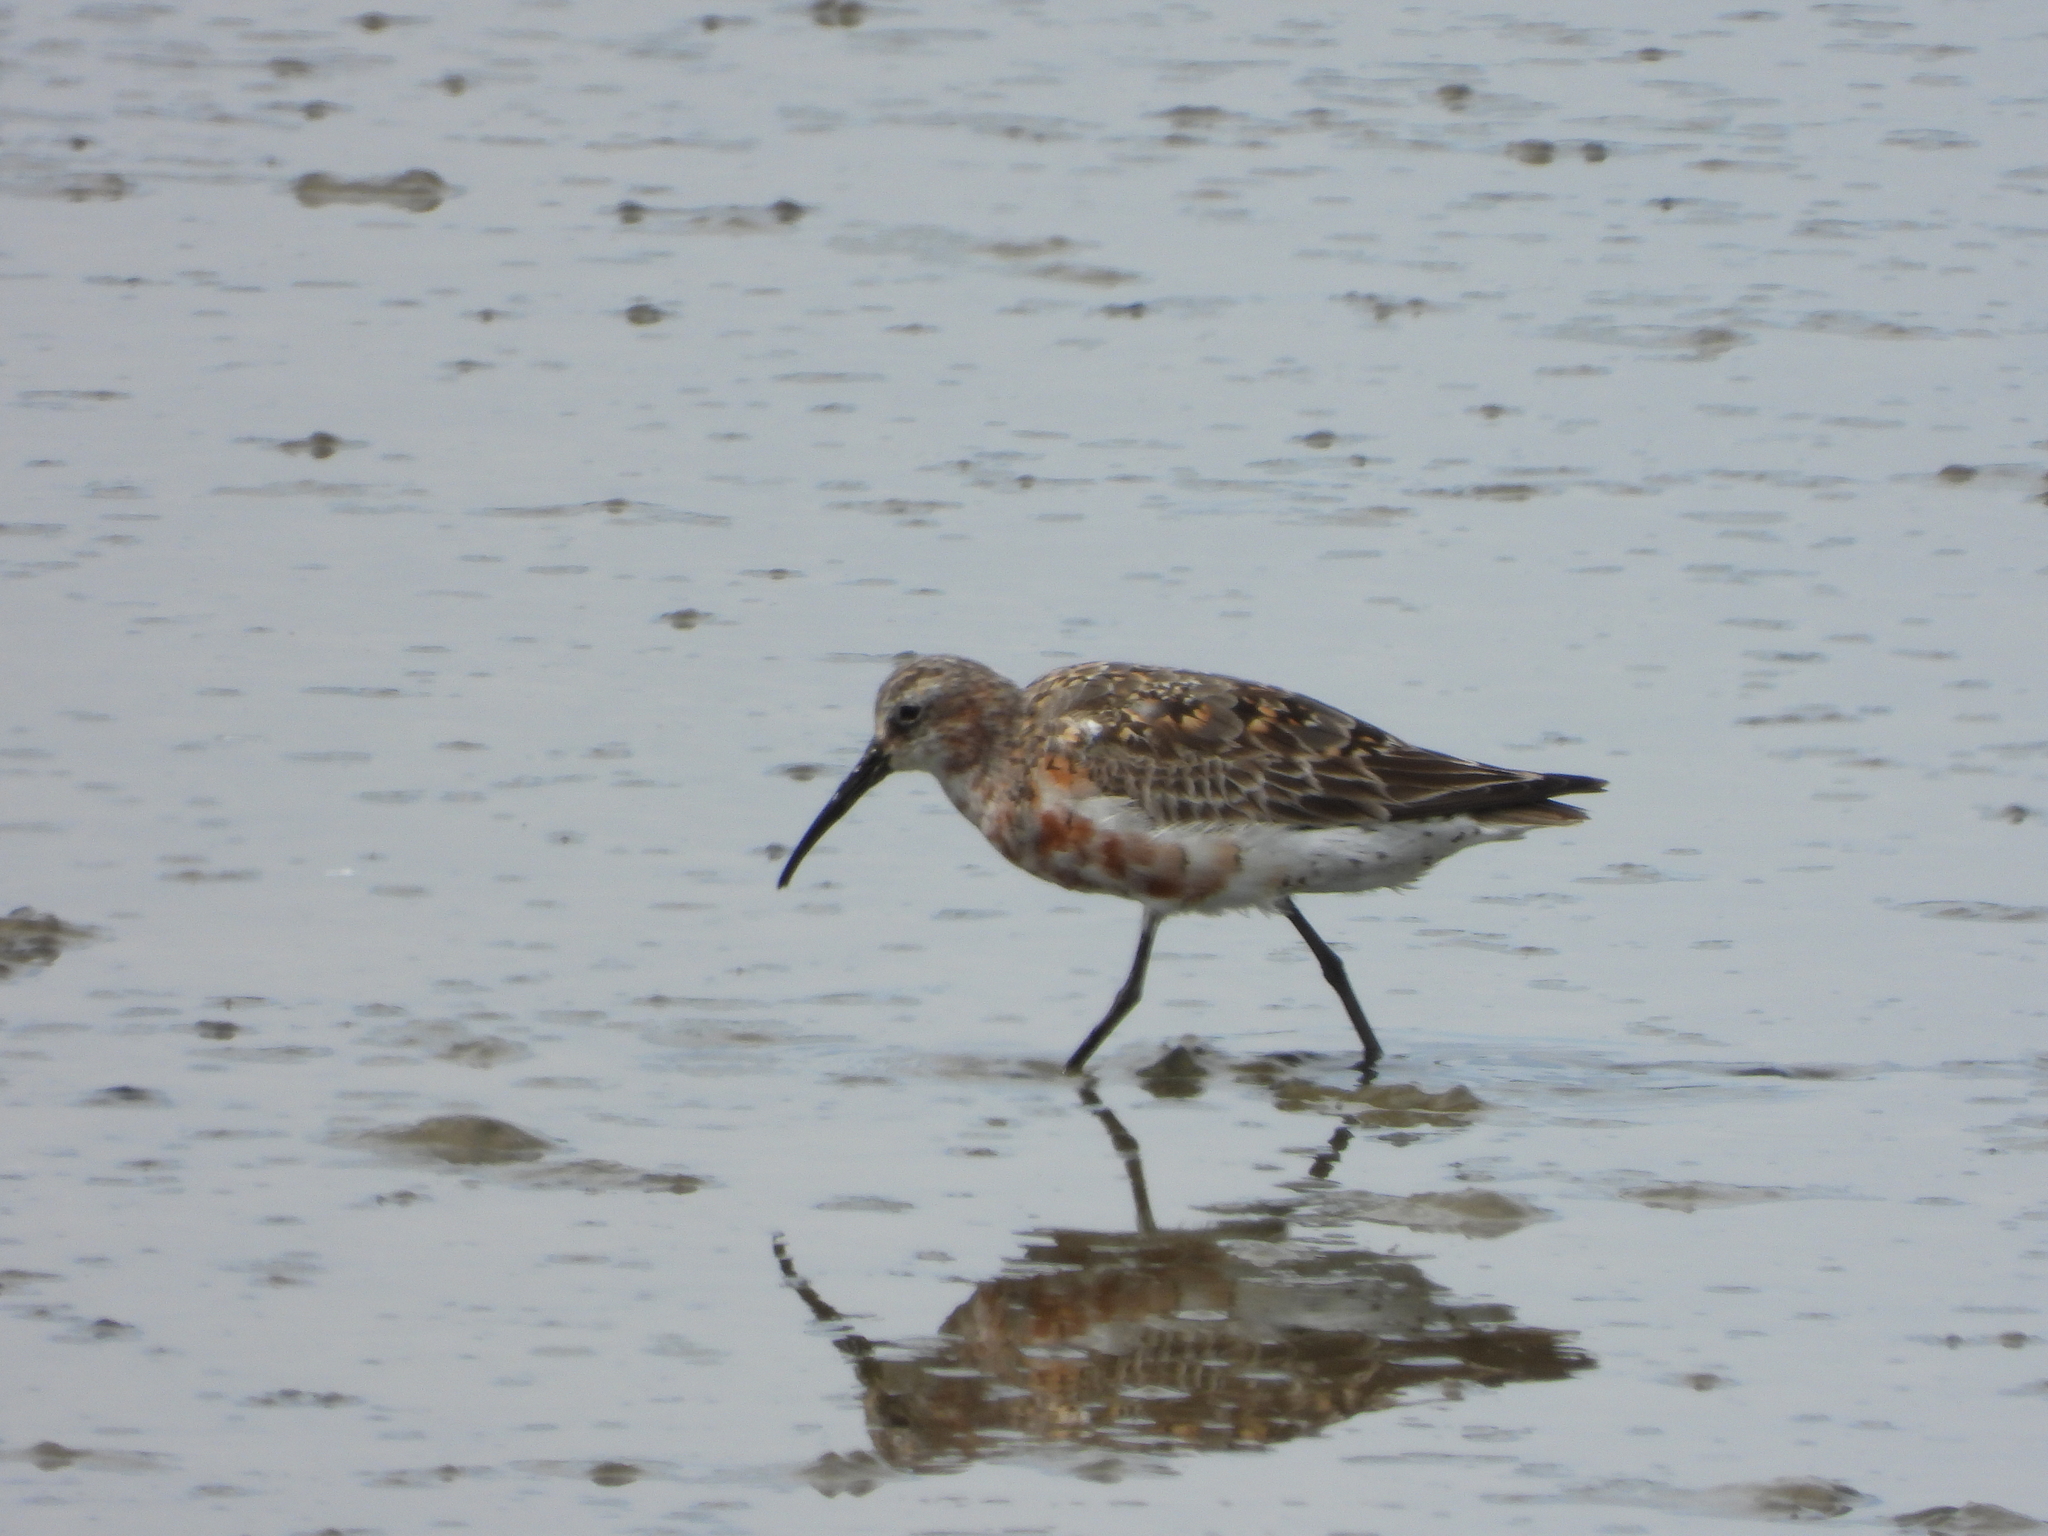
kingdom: Animalia
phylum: Chordata
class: Aves
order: Charadriiformes
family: Scolopacidae
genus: Calidris
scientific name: Calidris ferruginea
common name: Curlew sandpiper
